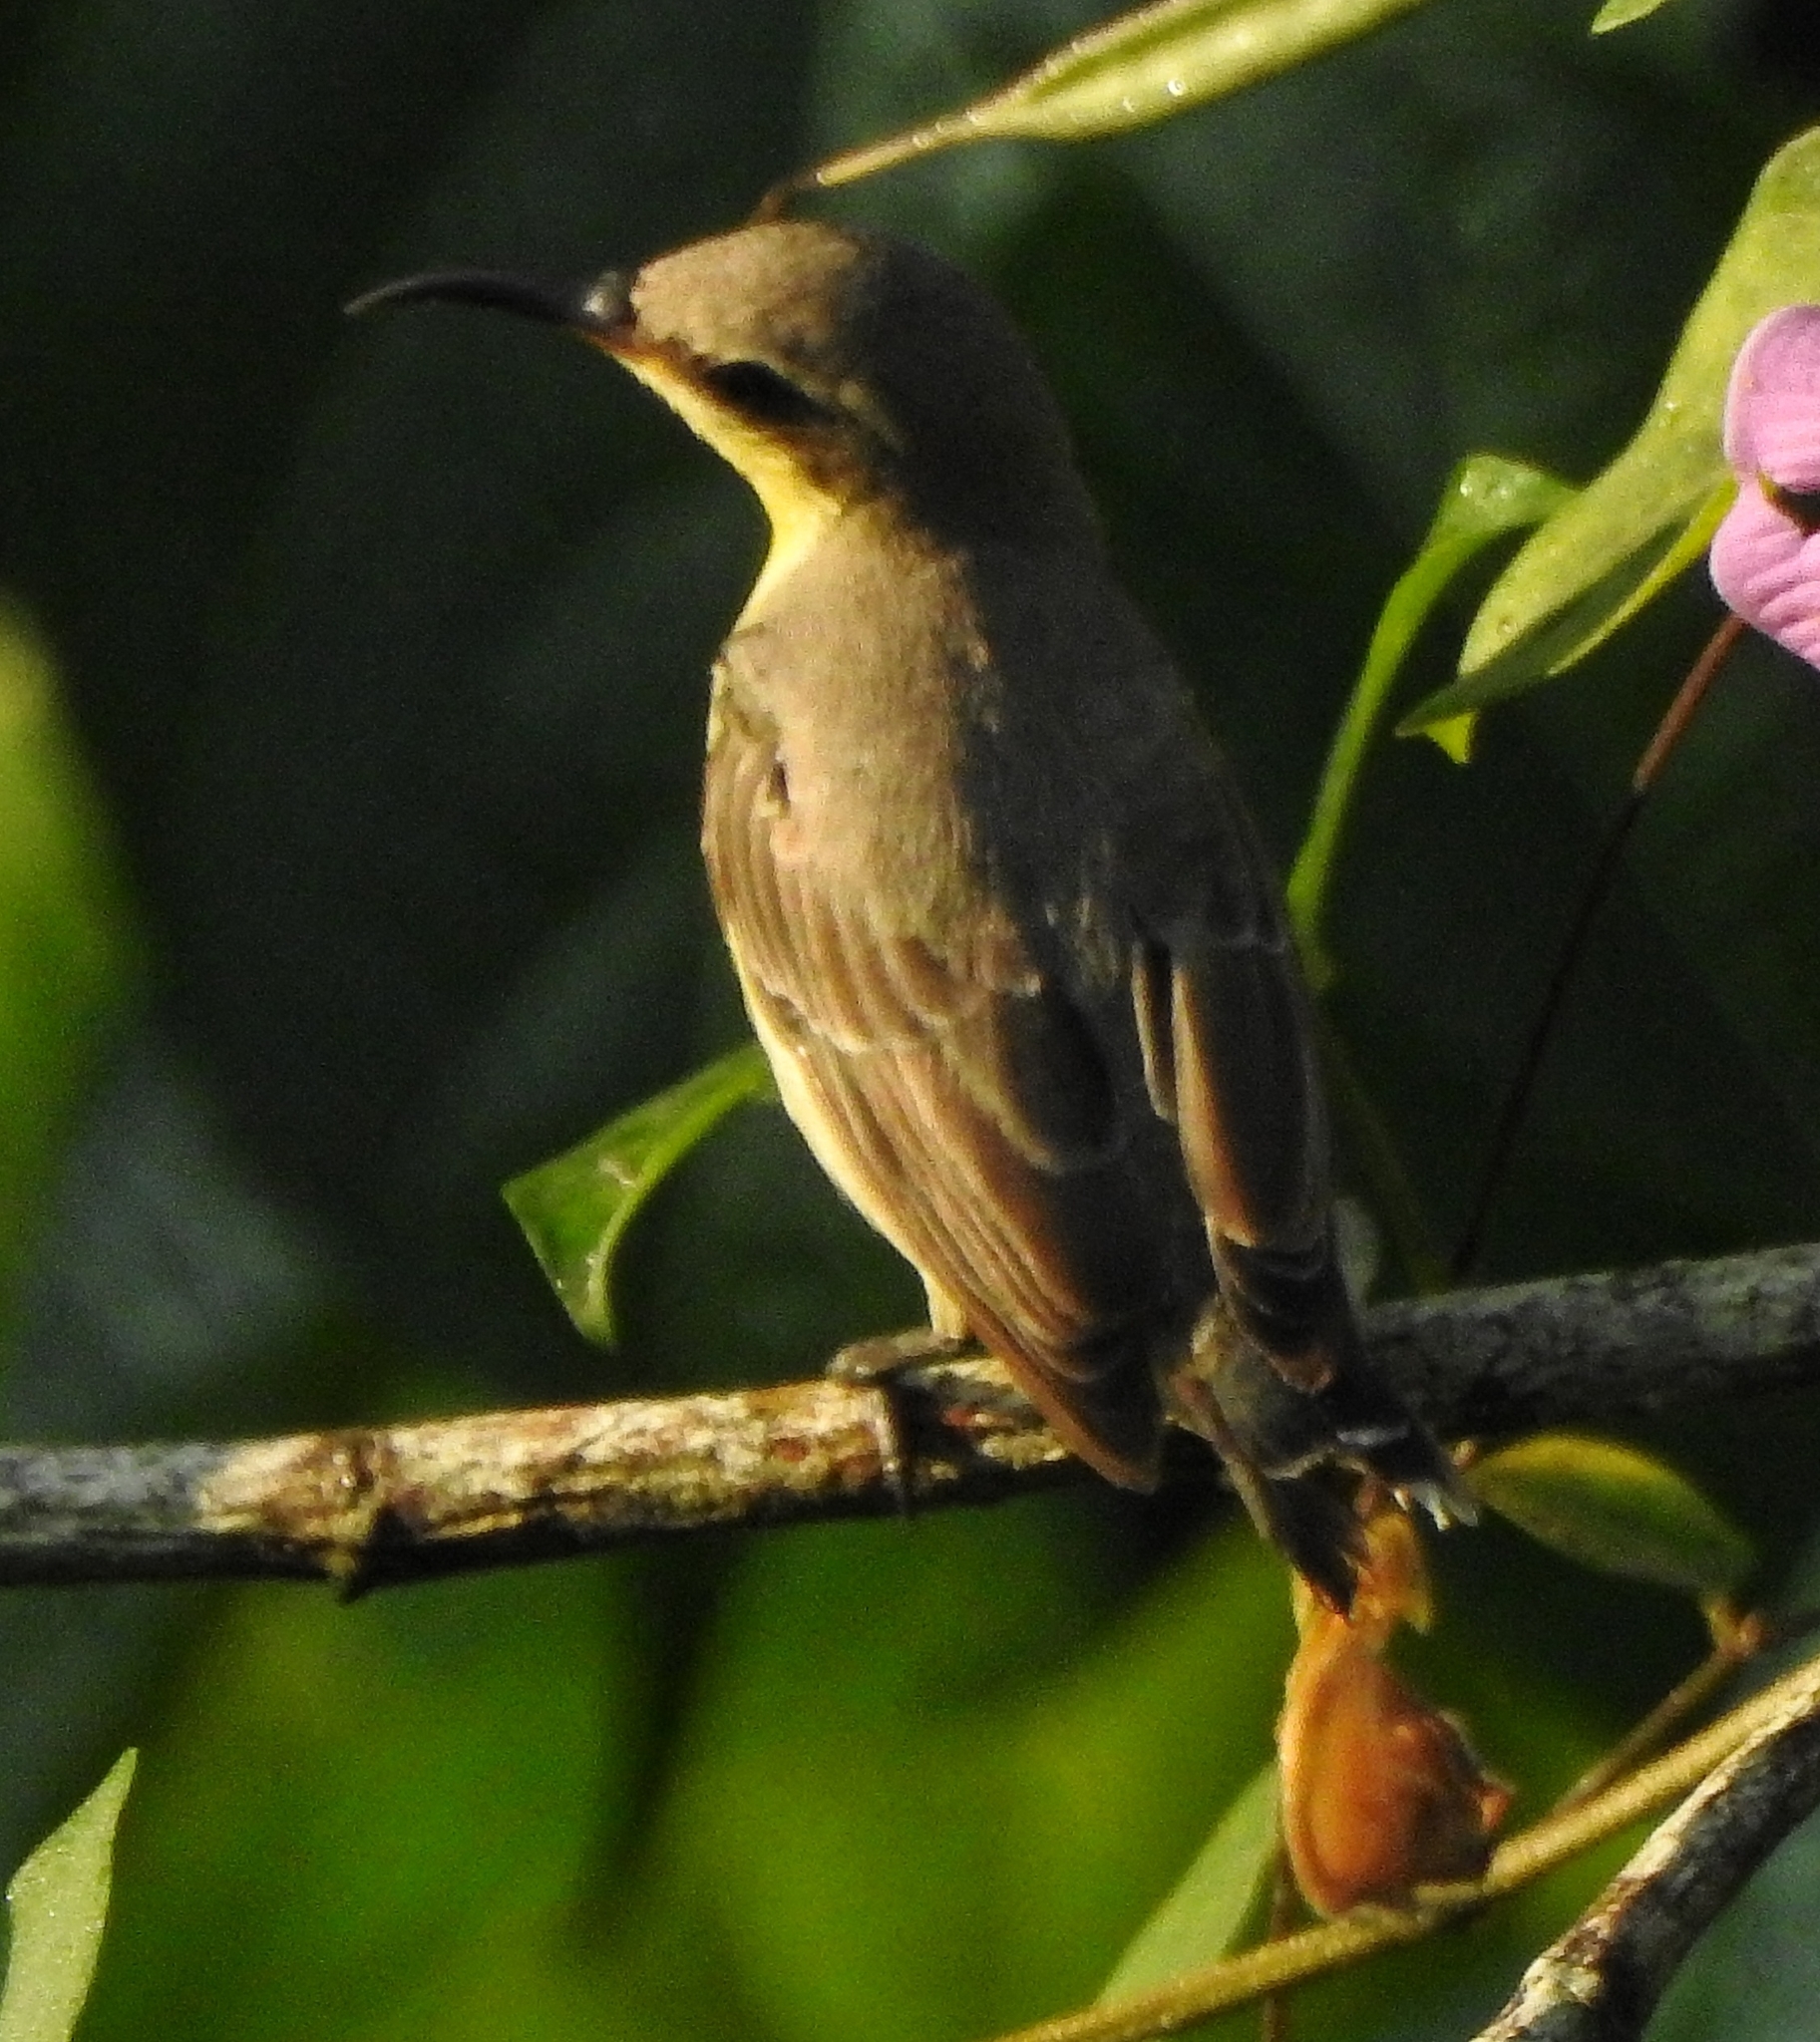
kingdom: Animalia
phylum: Chordata
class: Aves
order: Passeriformes
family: Nectariniidae
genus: Cinnyris
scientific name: Cinnyris asiaticus
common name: Purple sunbird
